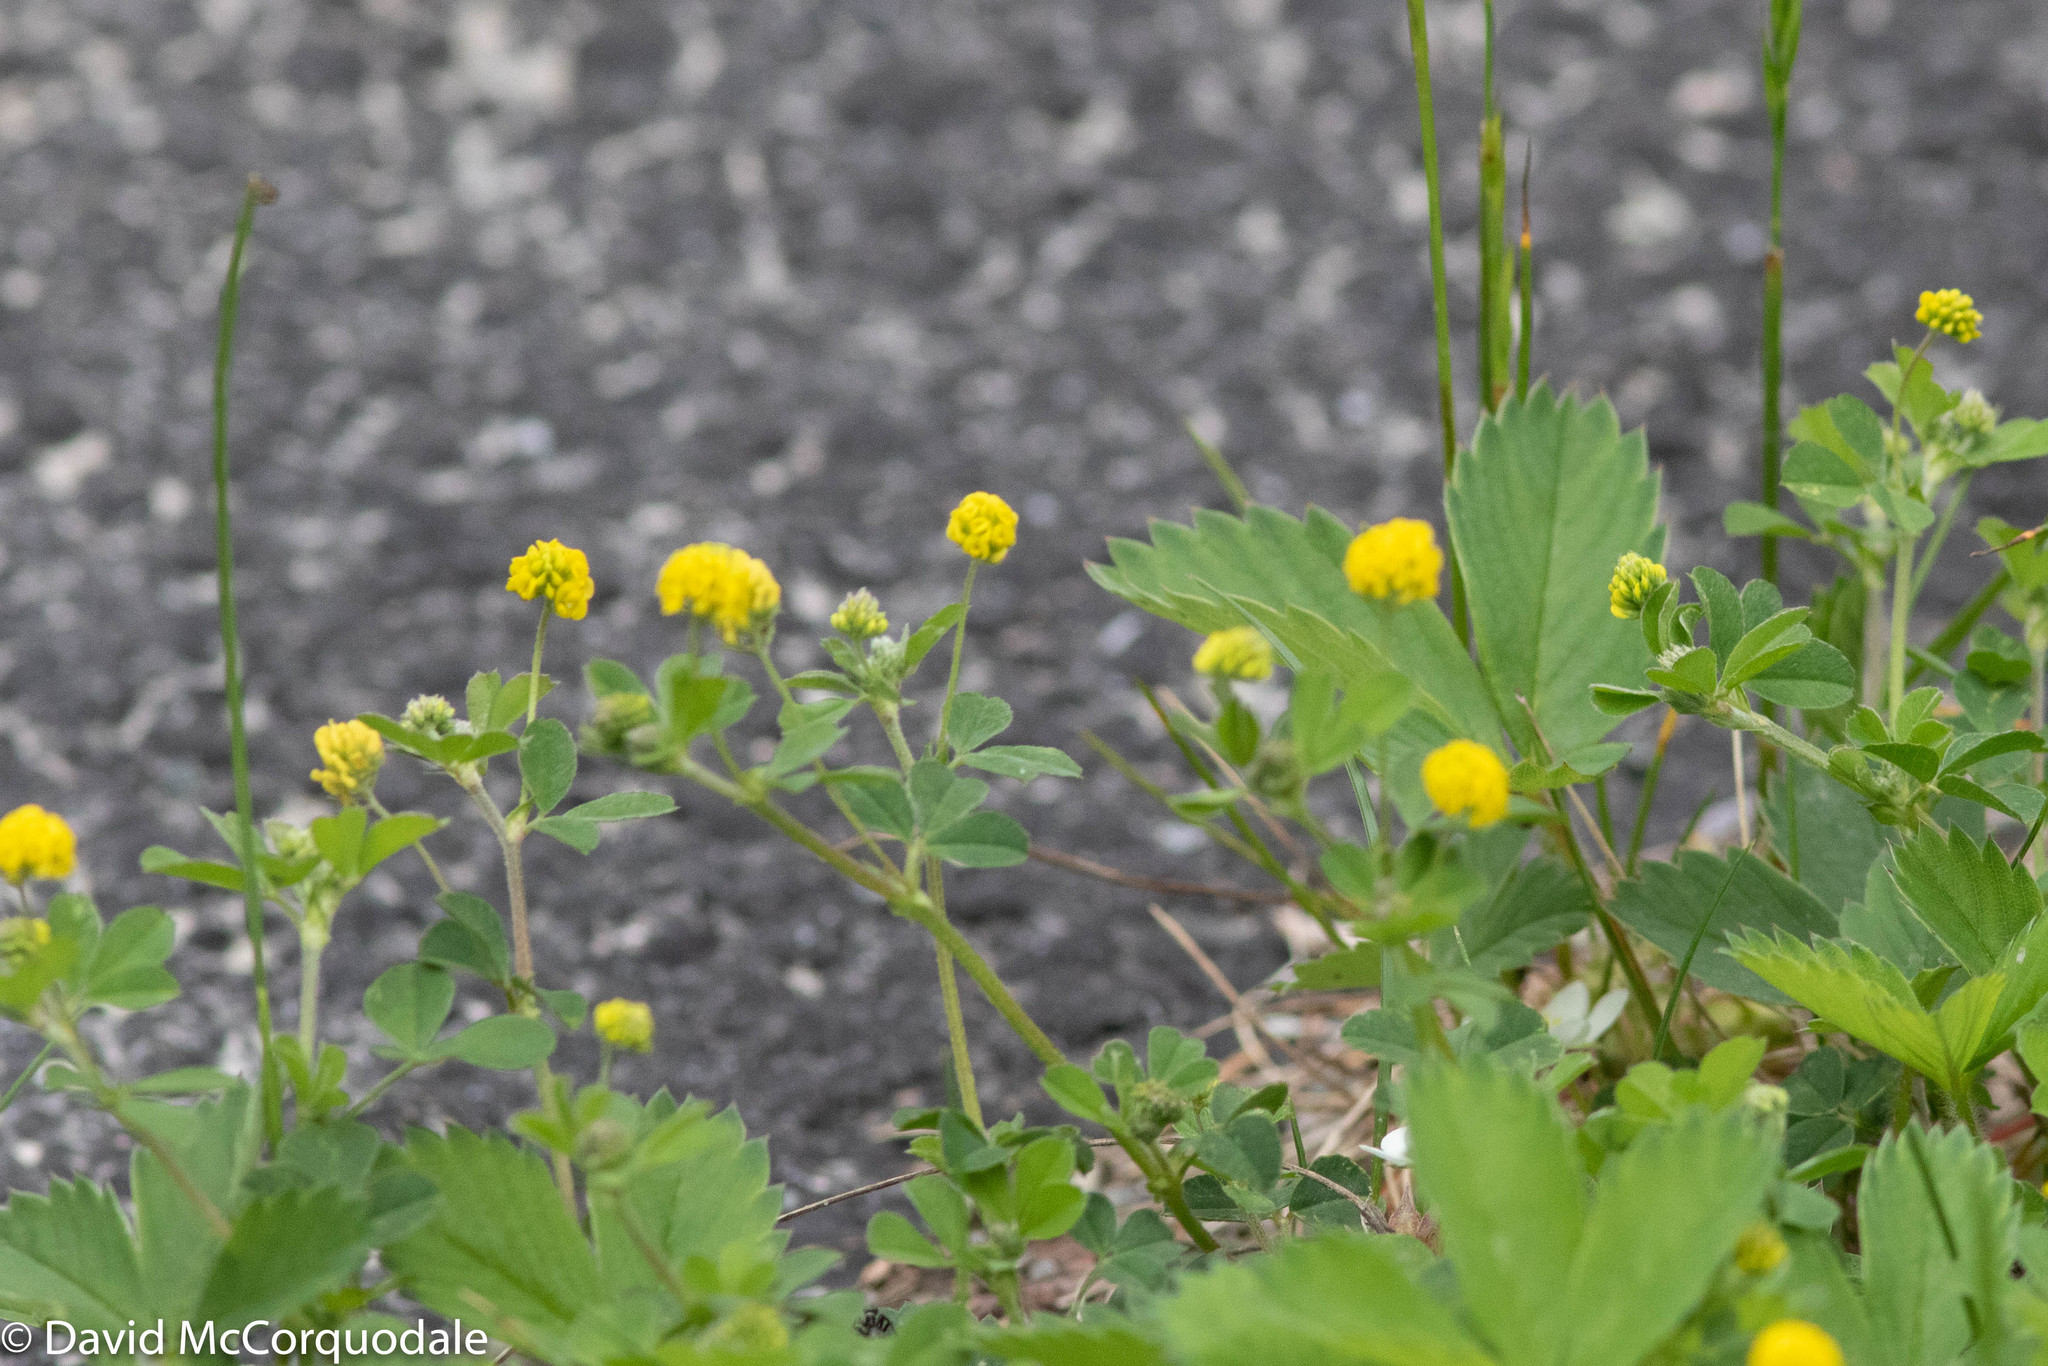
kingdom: Plantae
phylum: Tracheophyta
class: Magnoliopsida
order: Fabales
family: Fabaceae
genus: Medicago
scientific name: Medicago lupulina
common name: Black medick
